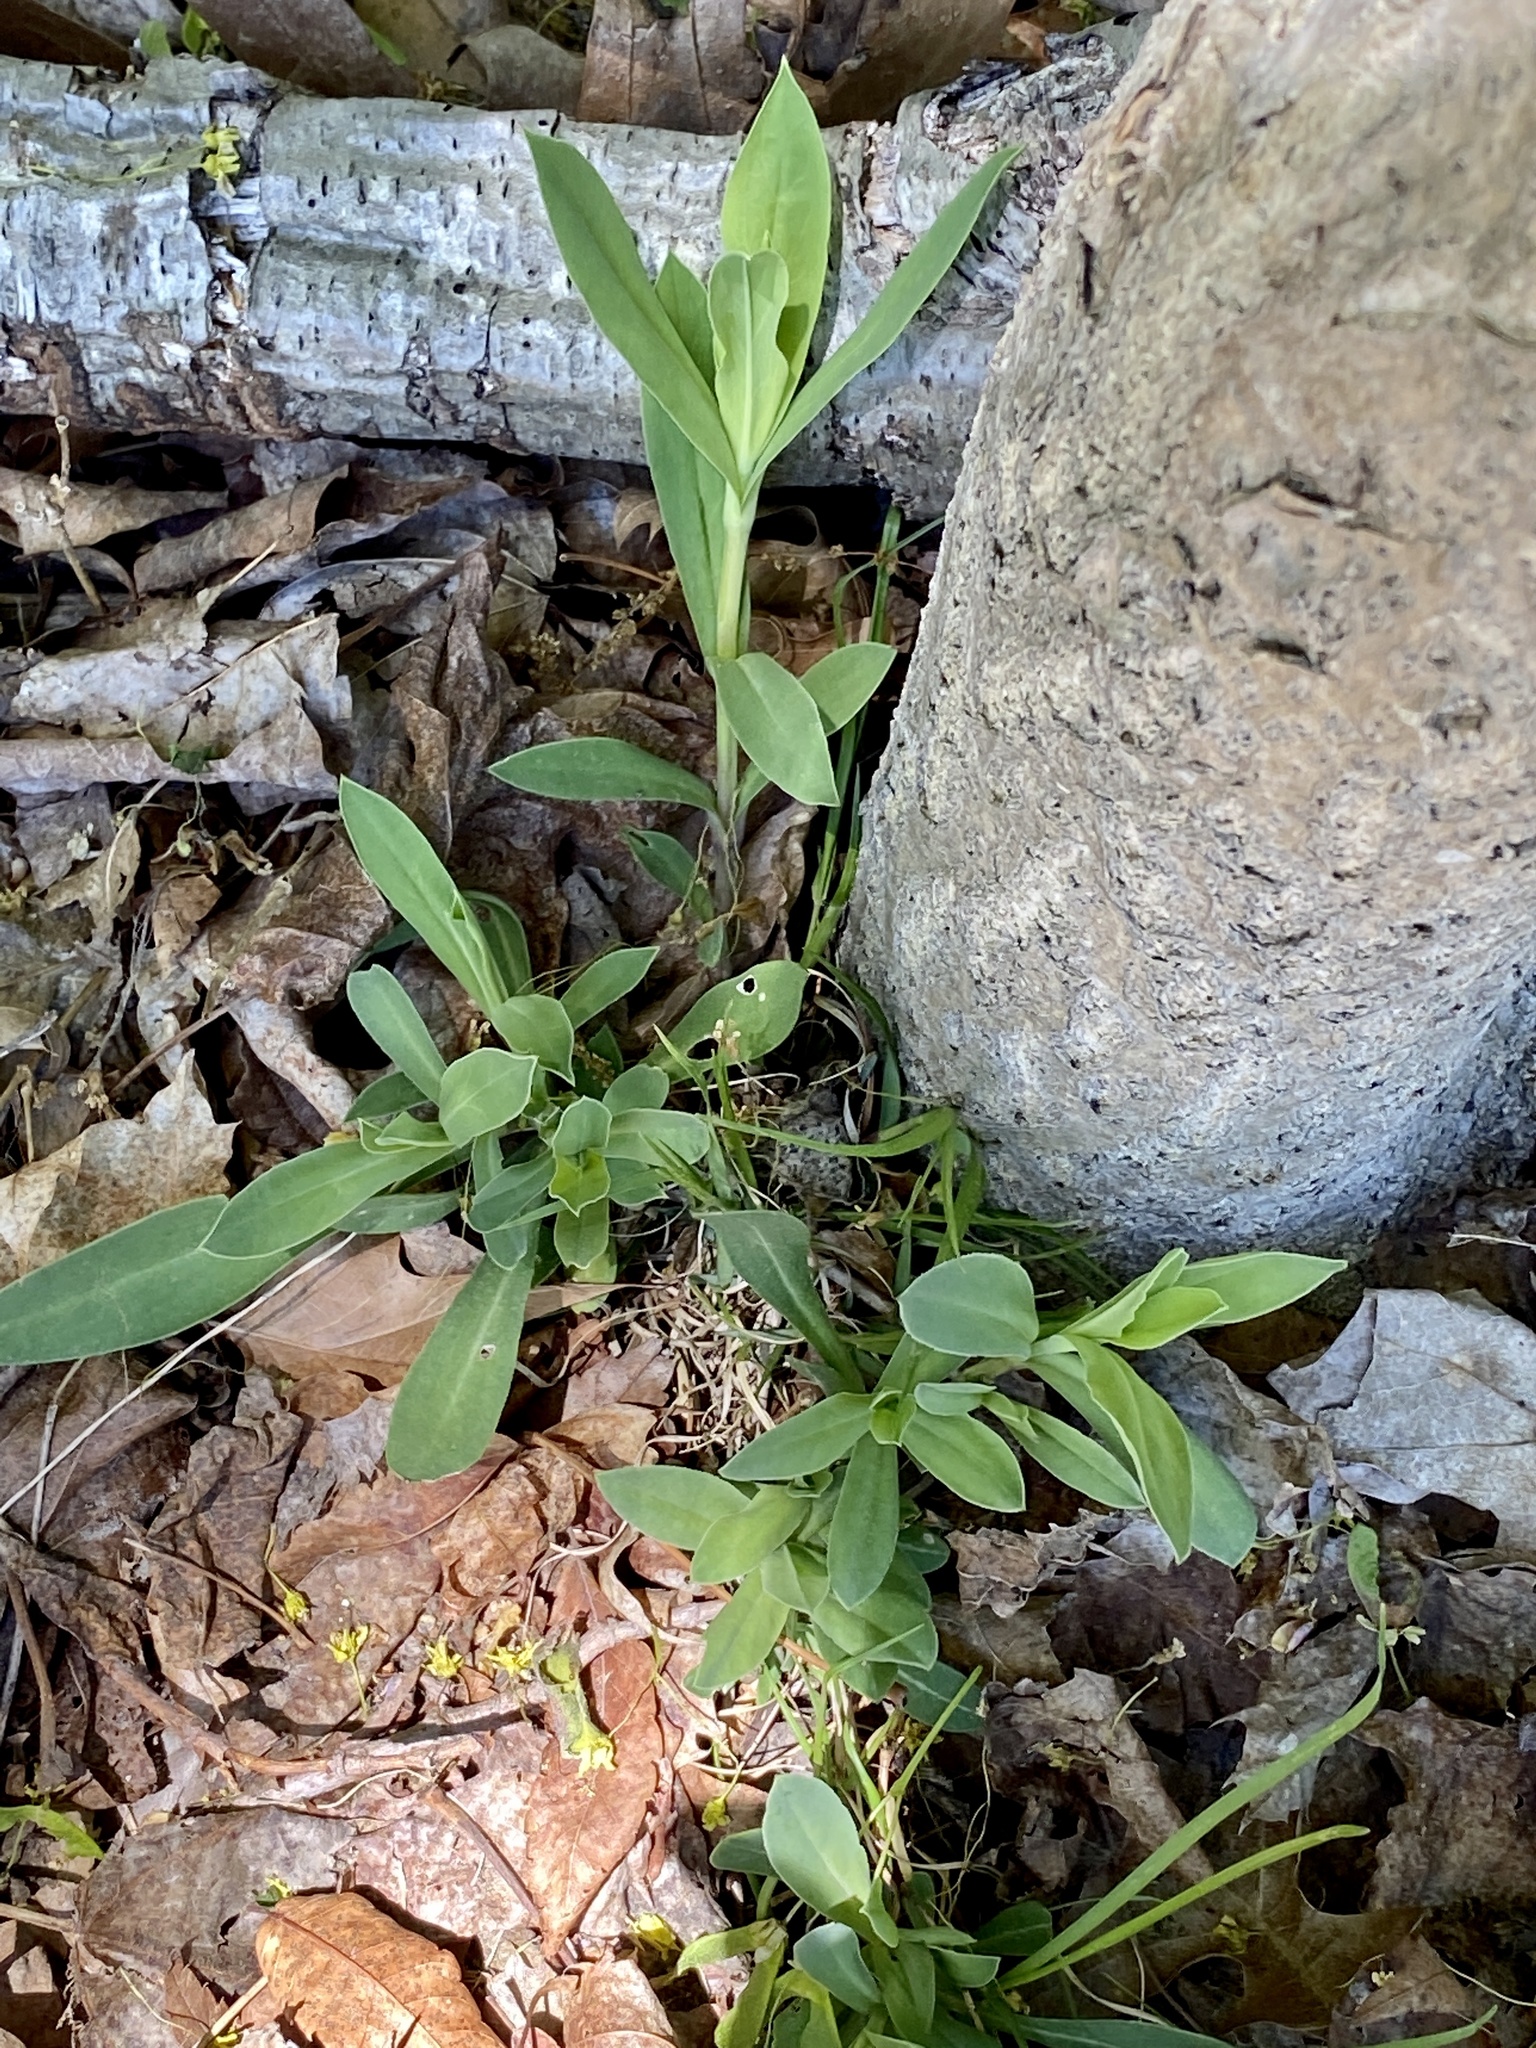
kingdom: Plantae
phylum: Tracheophyta
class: Magnoliopsida
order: Caryophyllales
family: Caryophyllaceae
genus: Silene
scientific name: Silene vulgaris
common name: Bladder campion
